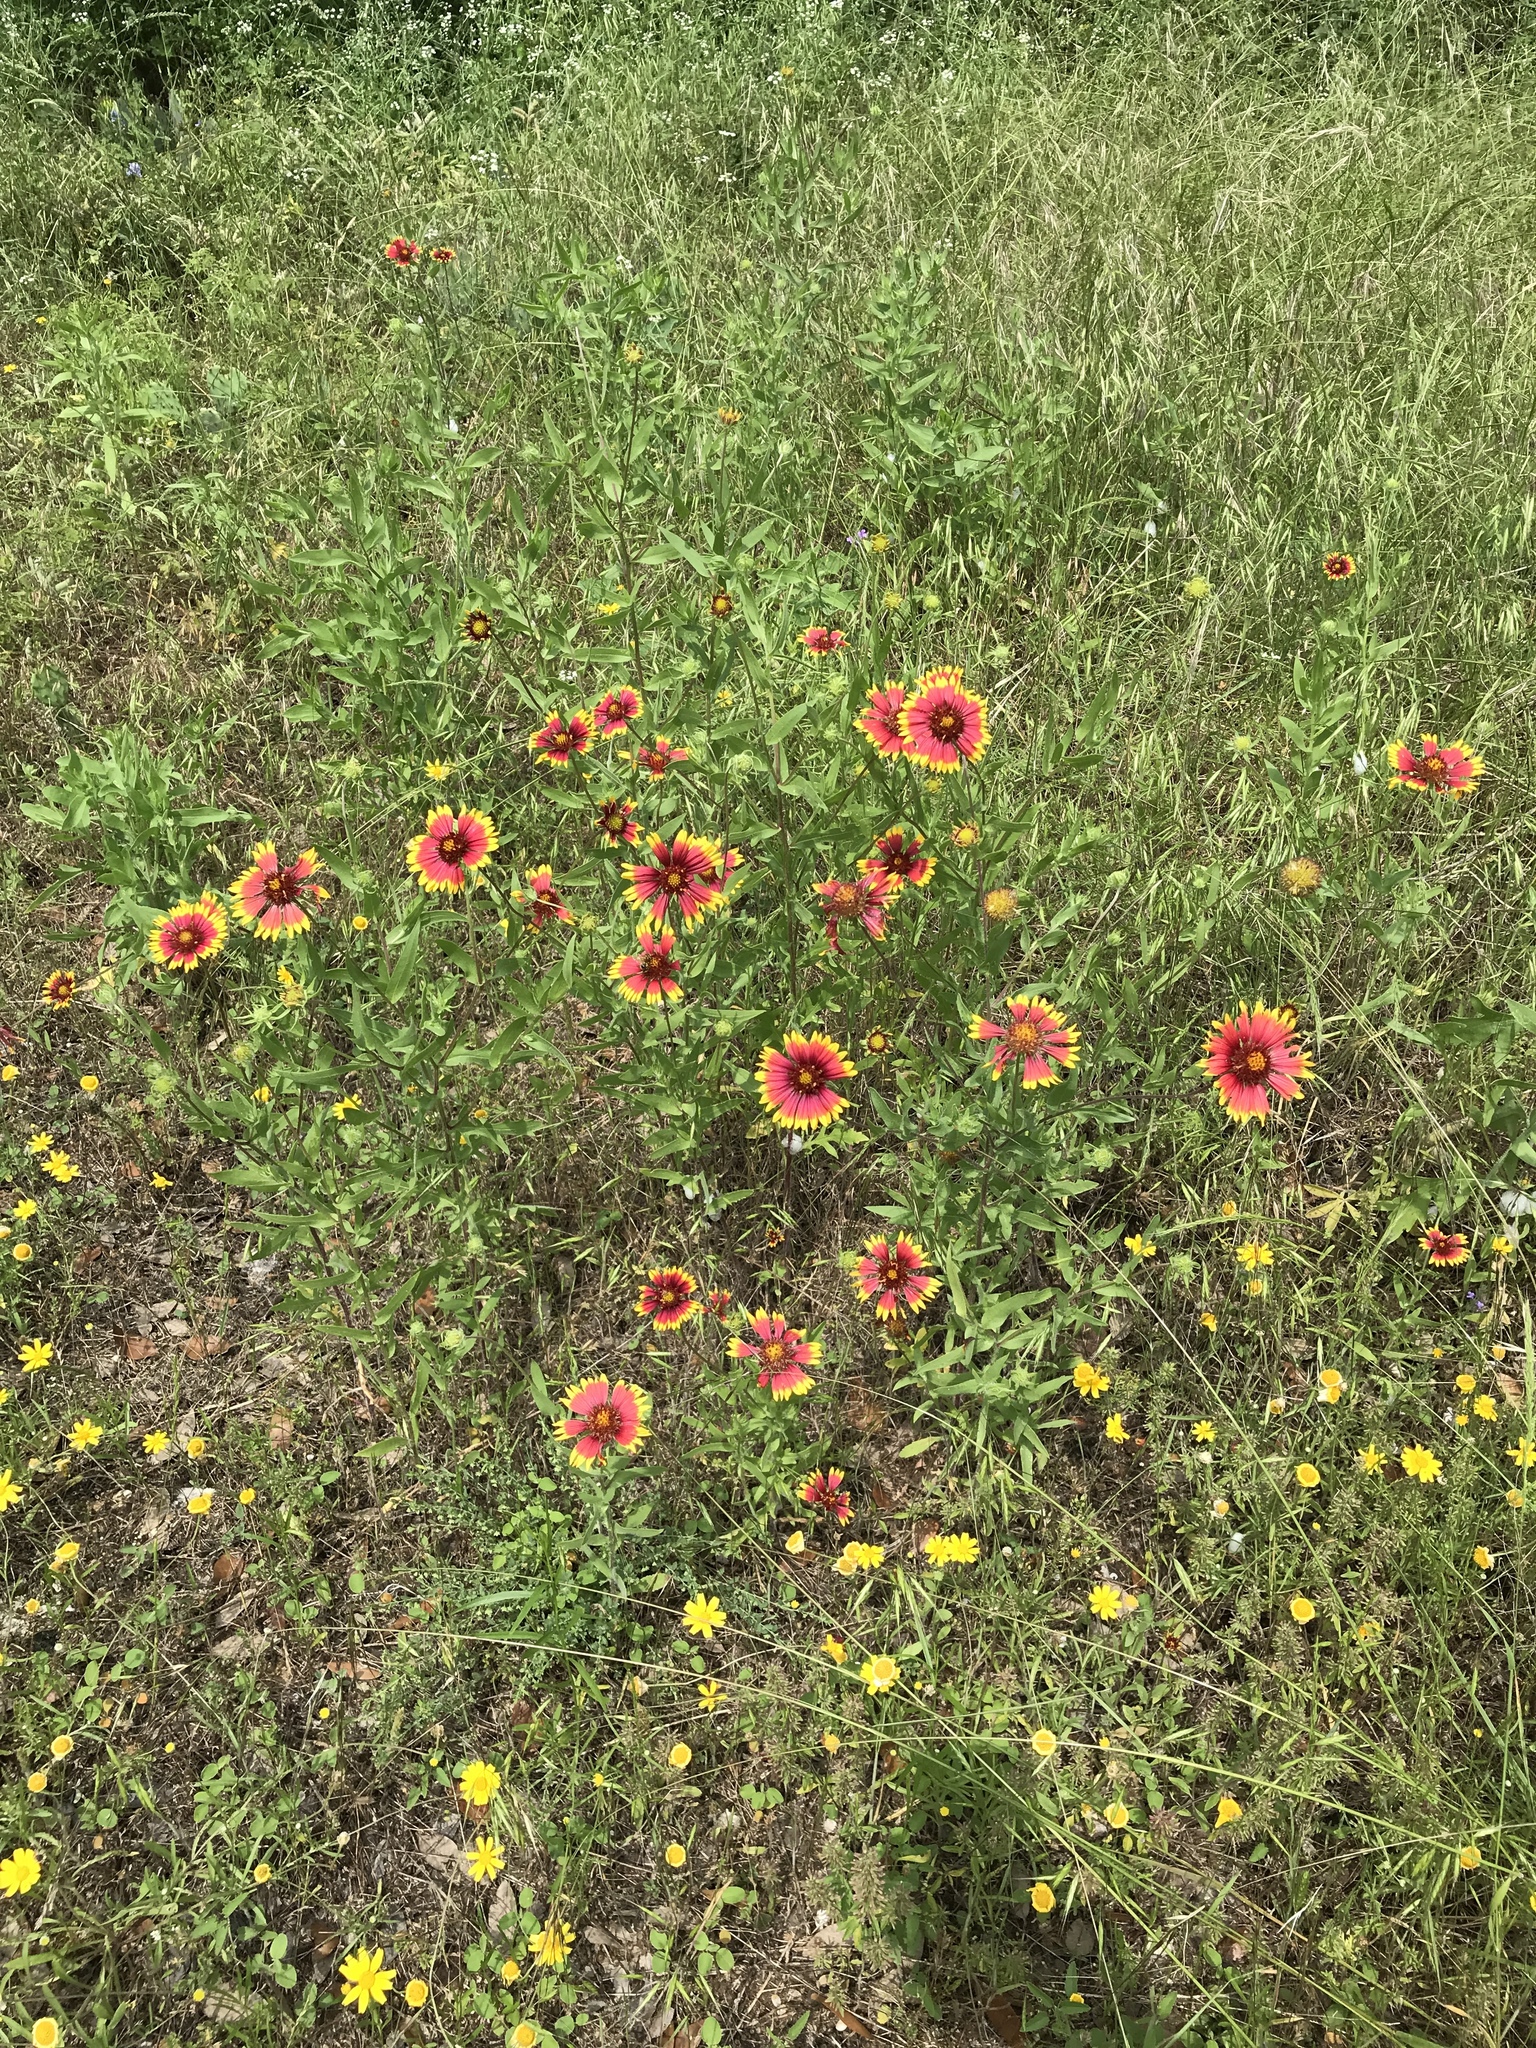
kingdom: Plantae
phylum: Tracheophyta
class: Magnoliopsida
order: Asterales
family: Asteraceae
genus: Gaillardia
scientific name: Gaillardia pulchella
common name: Firewheel
